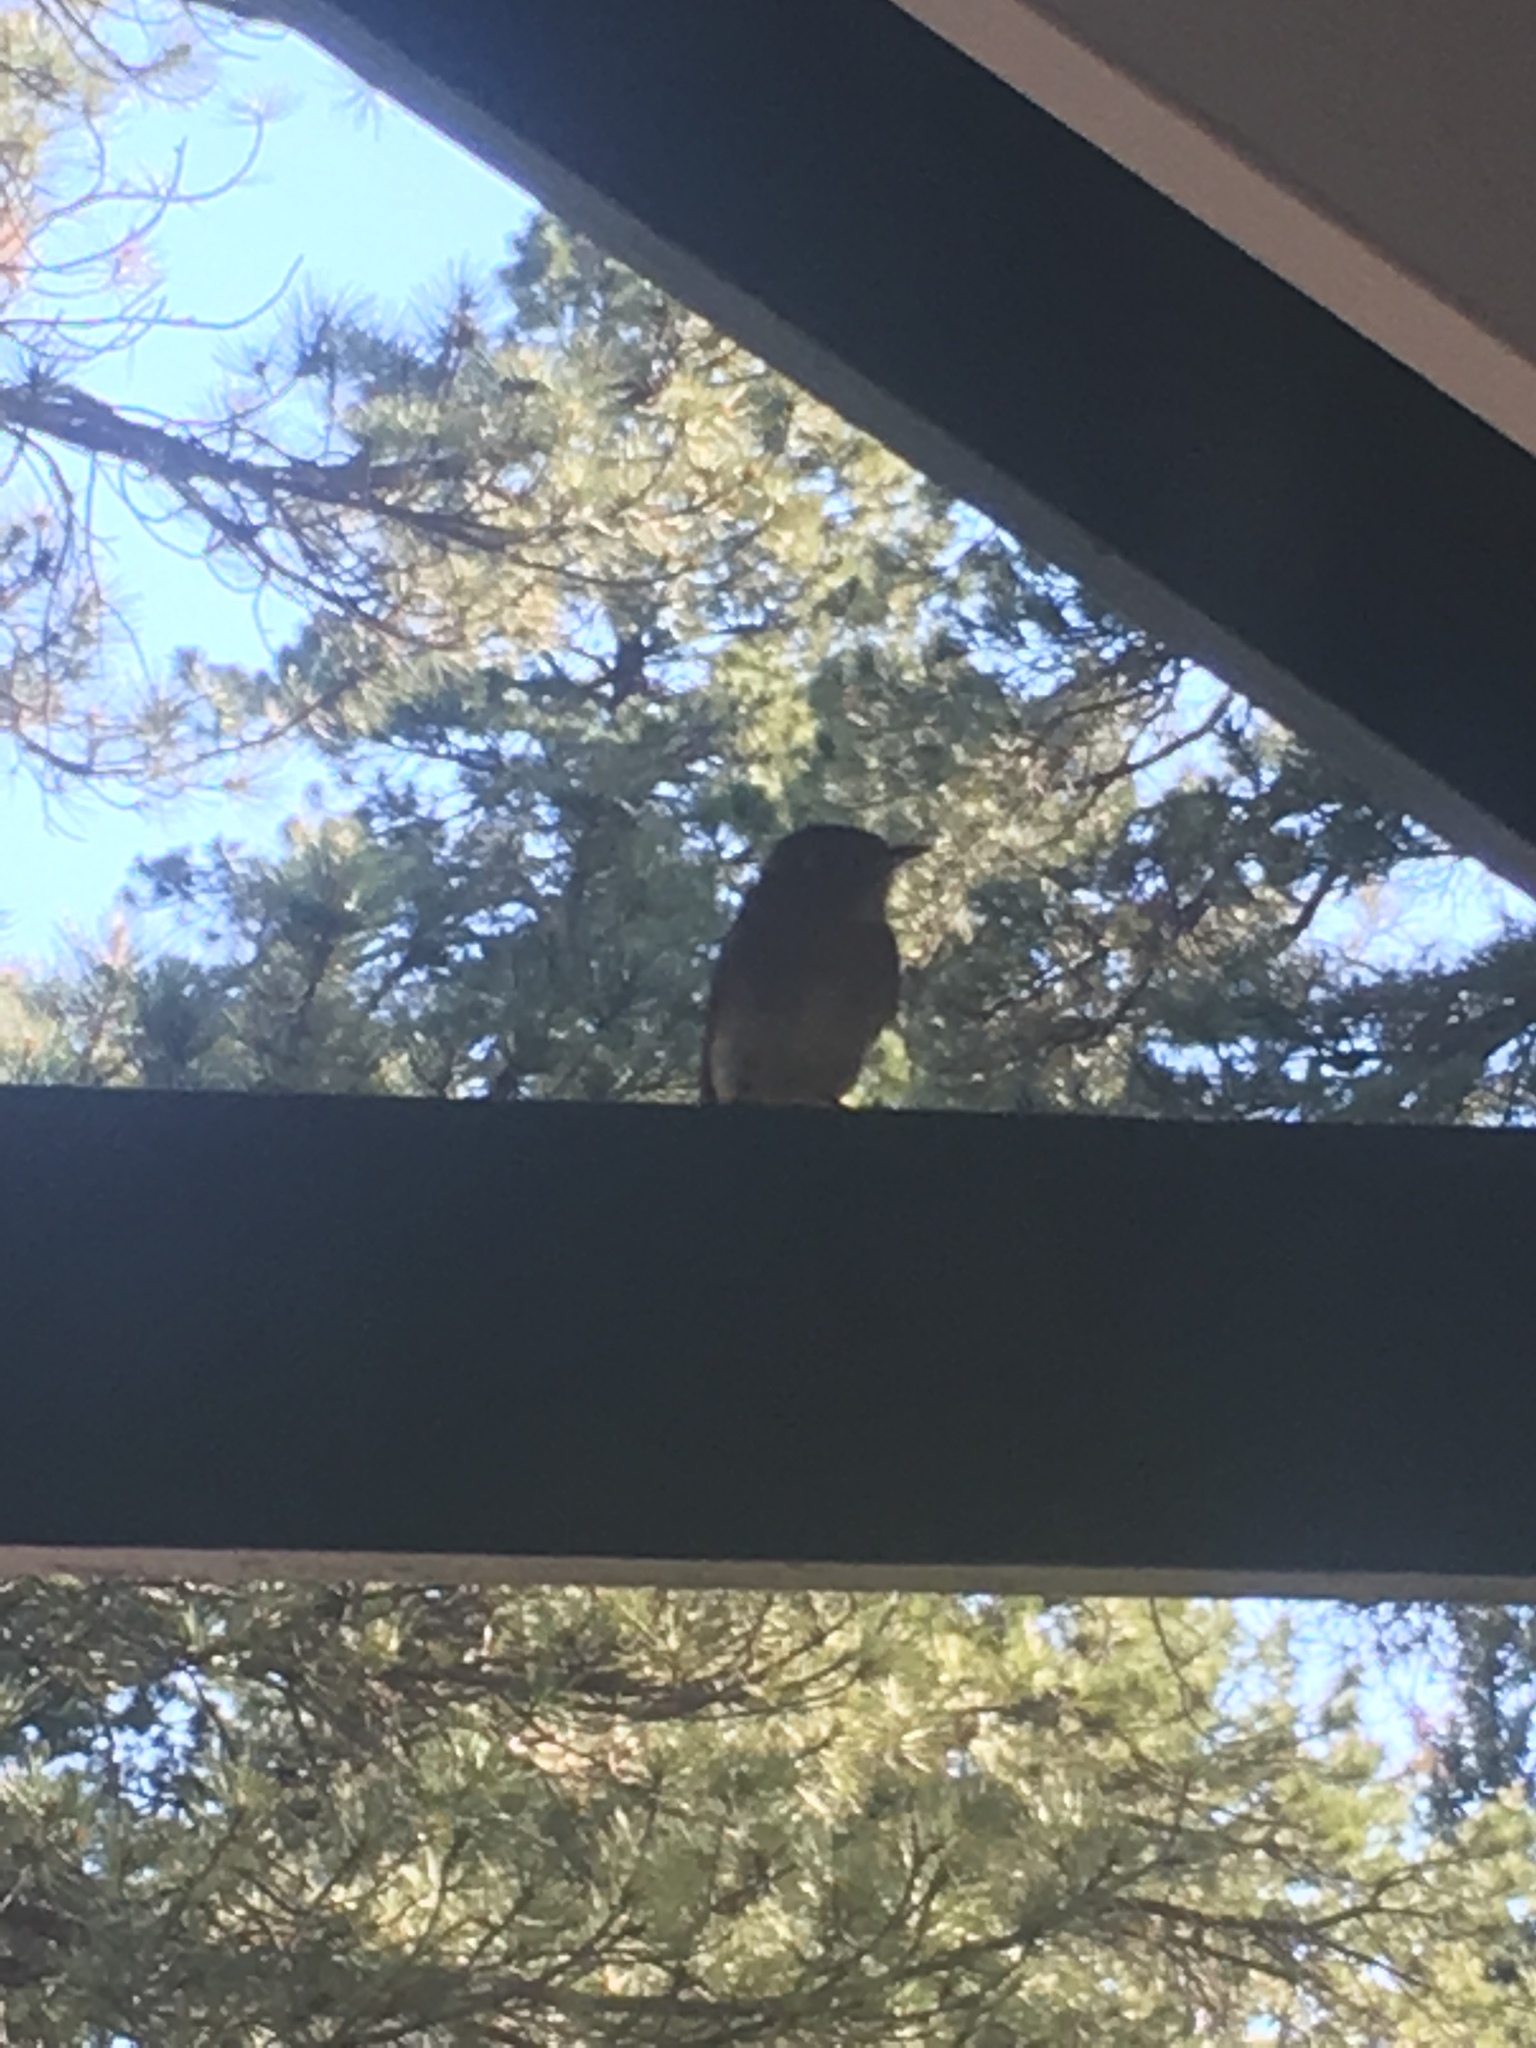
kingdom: Animalia
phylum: Chordata
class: Aves
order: Passeriformes
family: Tyrannidae
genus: Empidonax
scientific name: Empidonax difficilis
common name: Pacific-slope flycatcher
